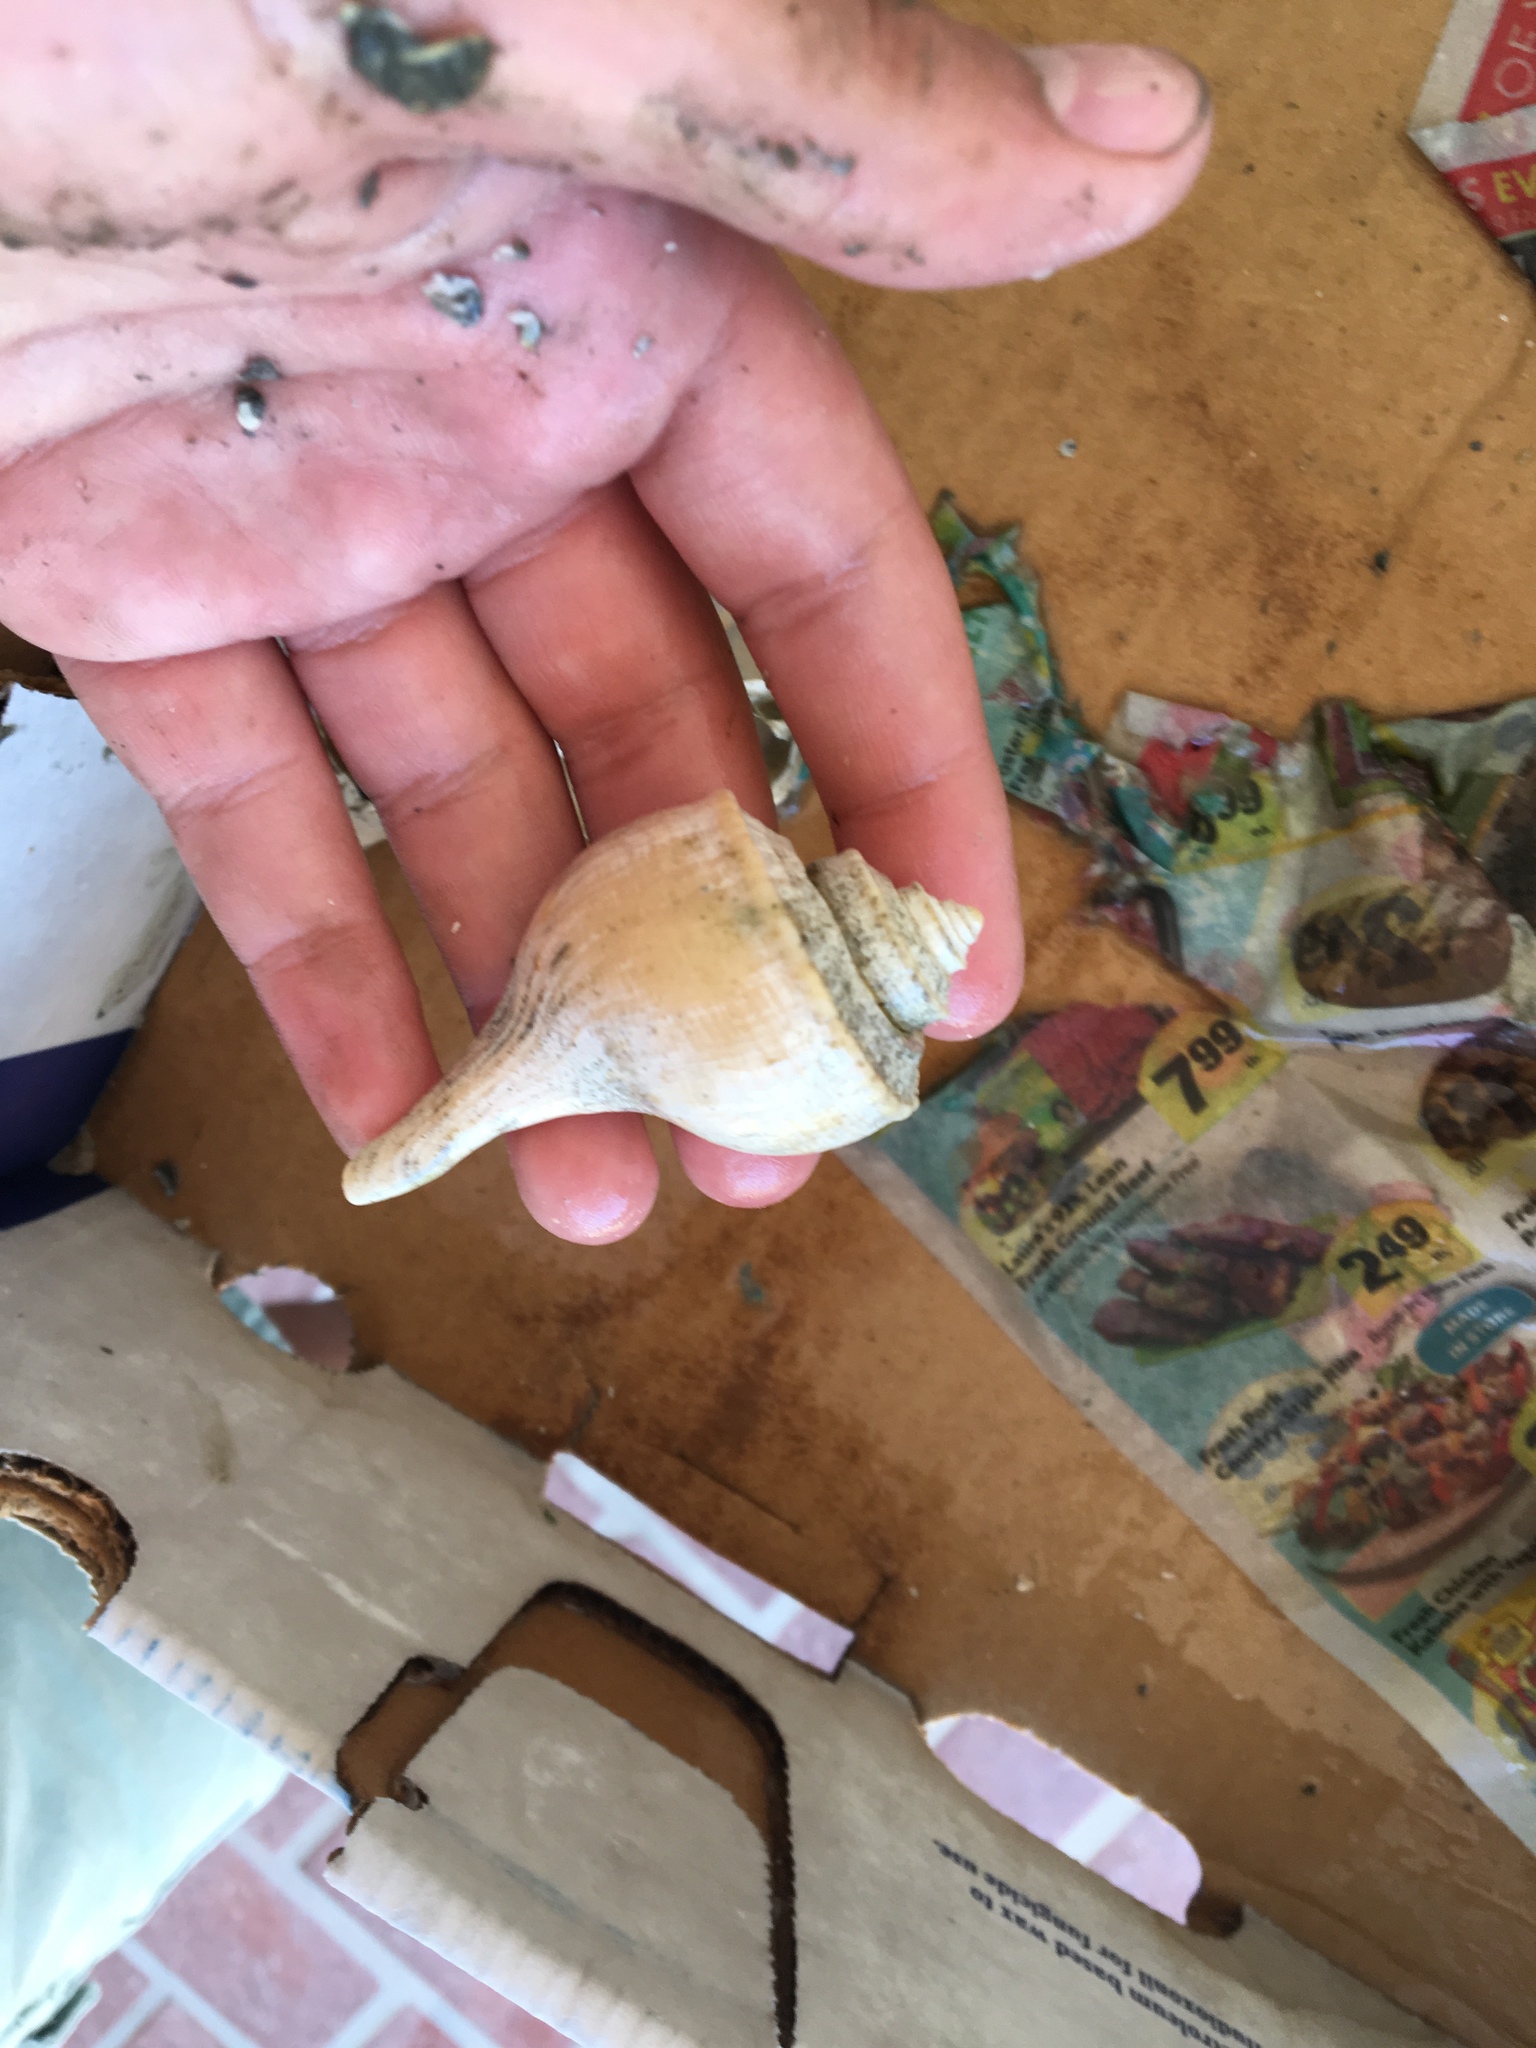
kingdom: Animalia
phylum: Mollusca
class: Gastropoda
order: Neogastropoda
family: Busyconidae
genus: Busycotypus
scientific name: Busycotypus canaliculatus
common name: Channeled whelk
